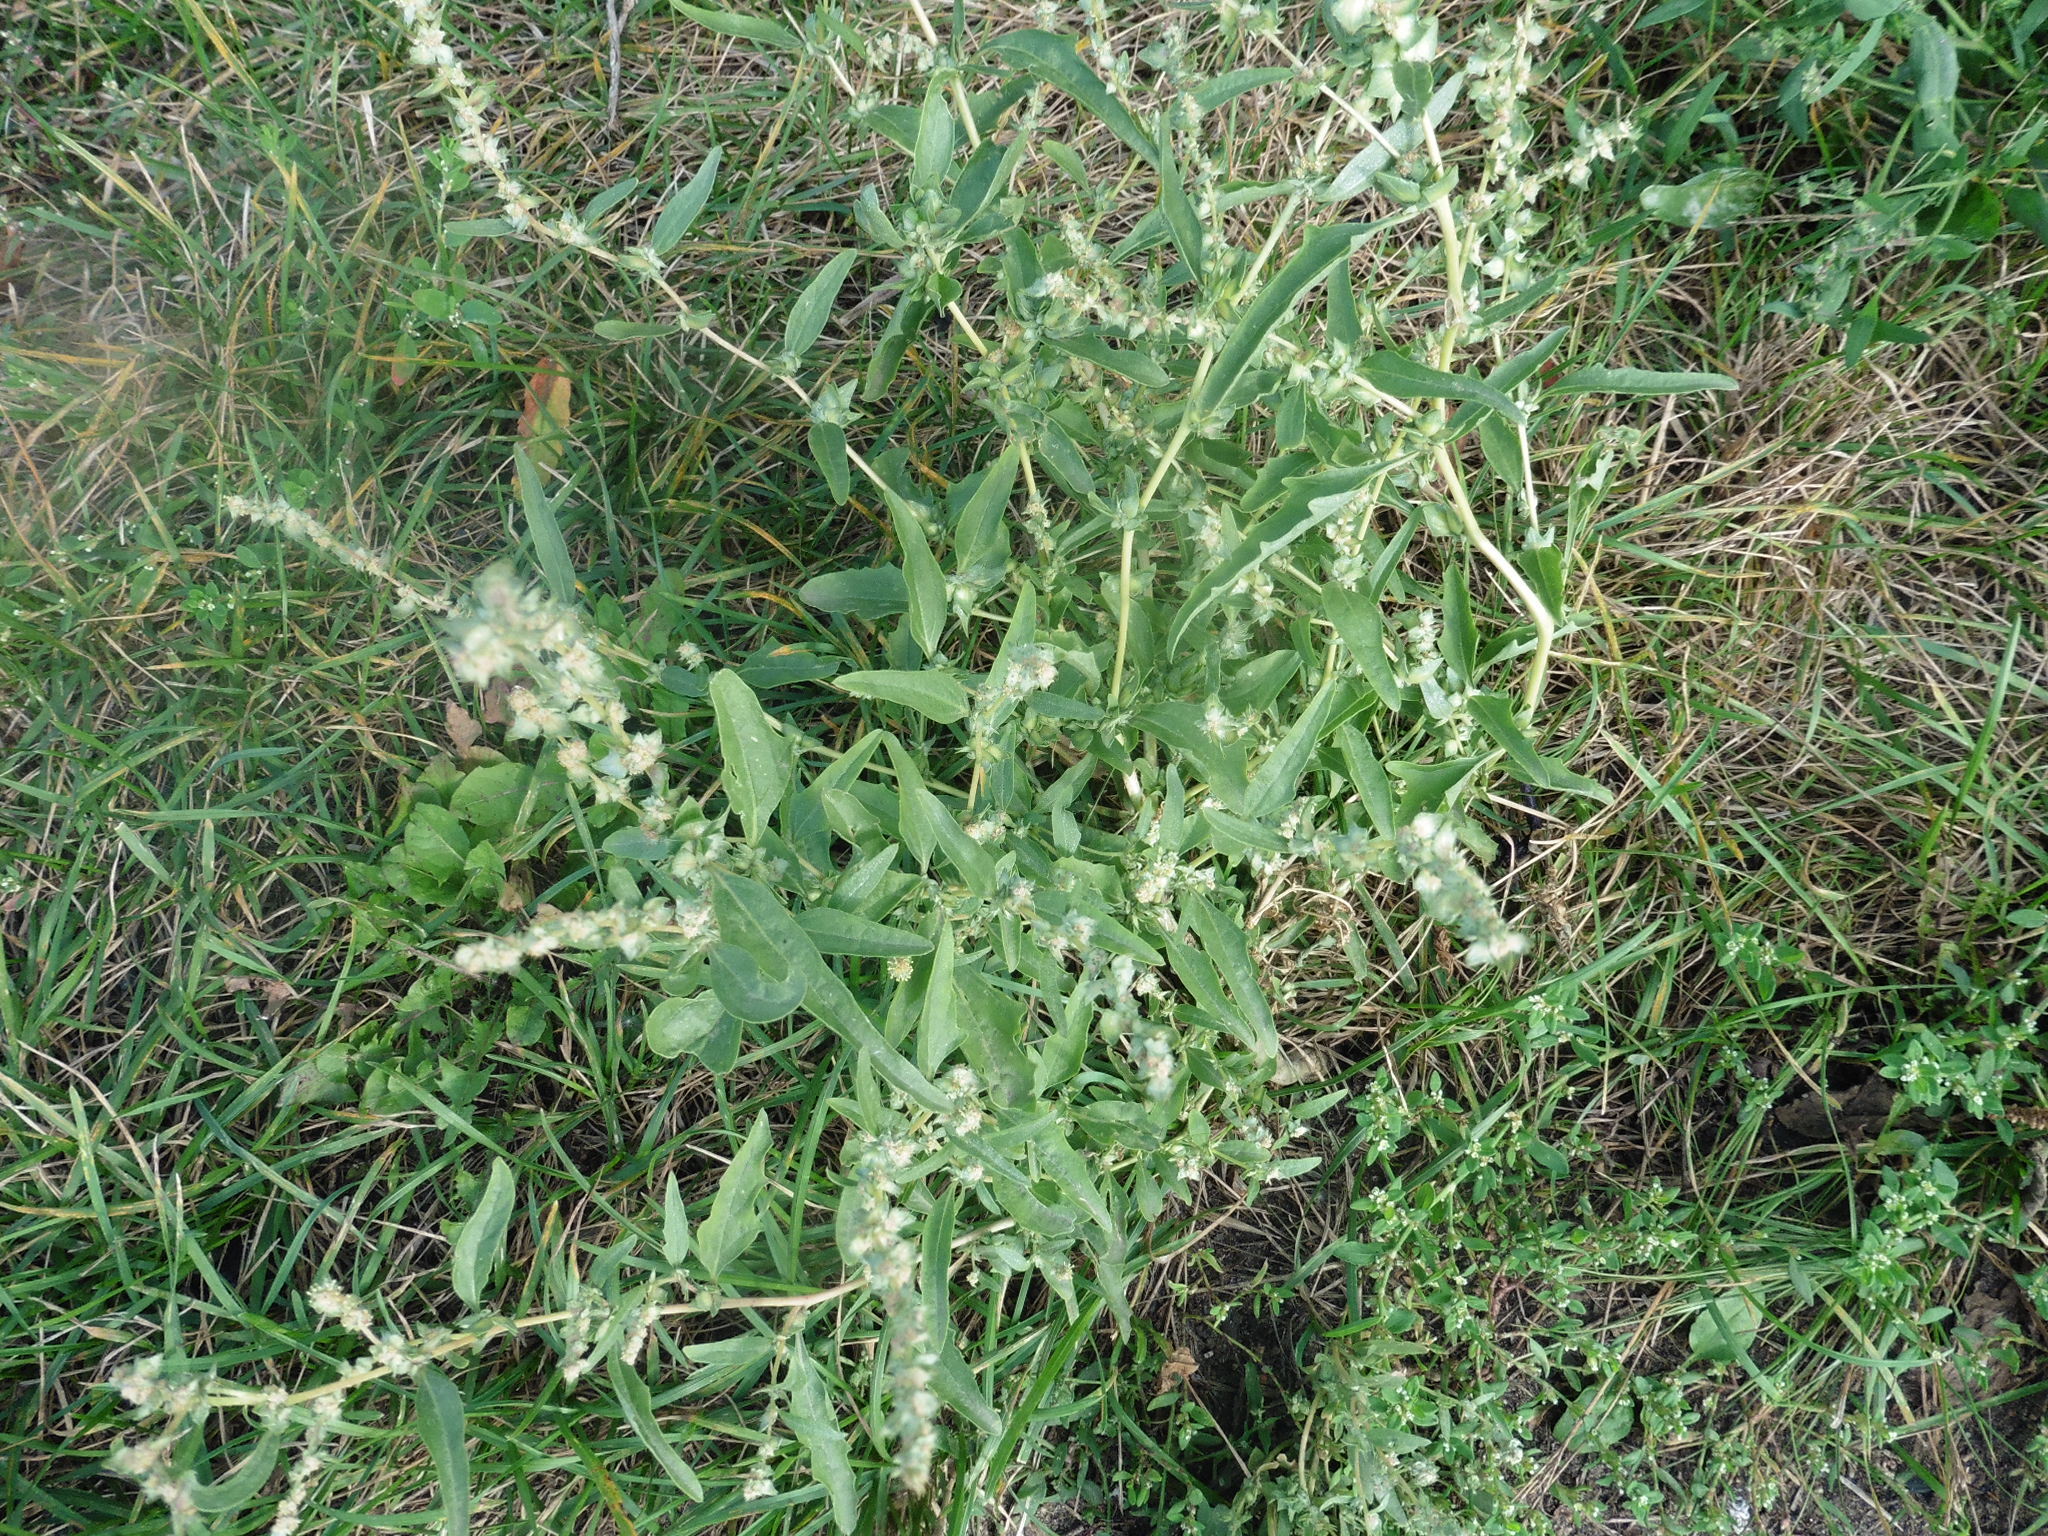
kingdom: Plantae
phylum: Tracheophyta
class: Magnoliopsida
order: Caryophyllales
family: Amaranthaceae
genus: Atriplex
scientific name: Atriplex tatarica
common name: Tatarian orache
